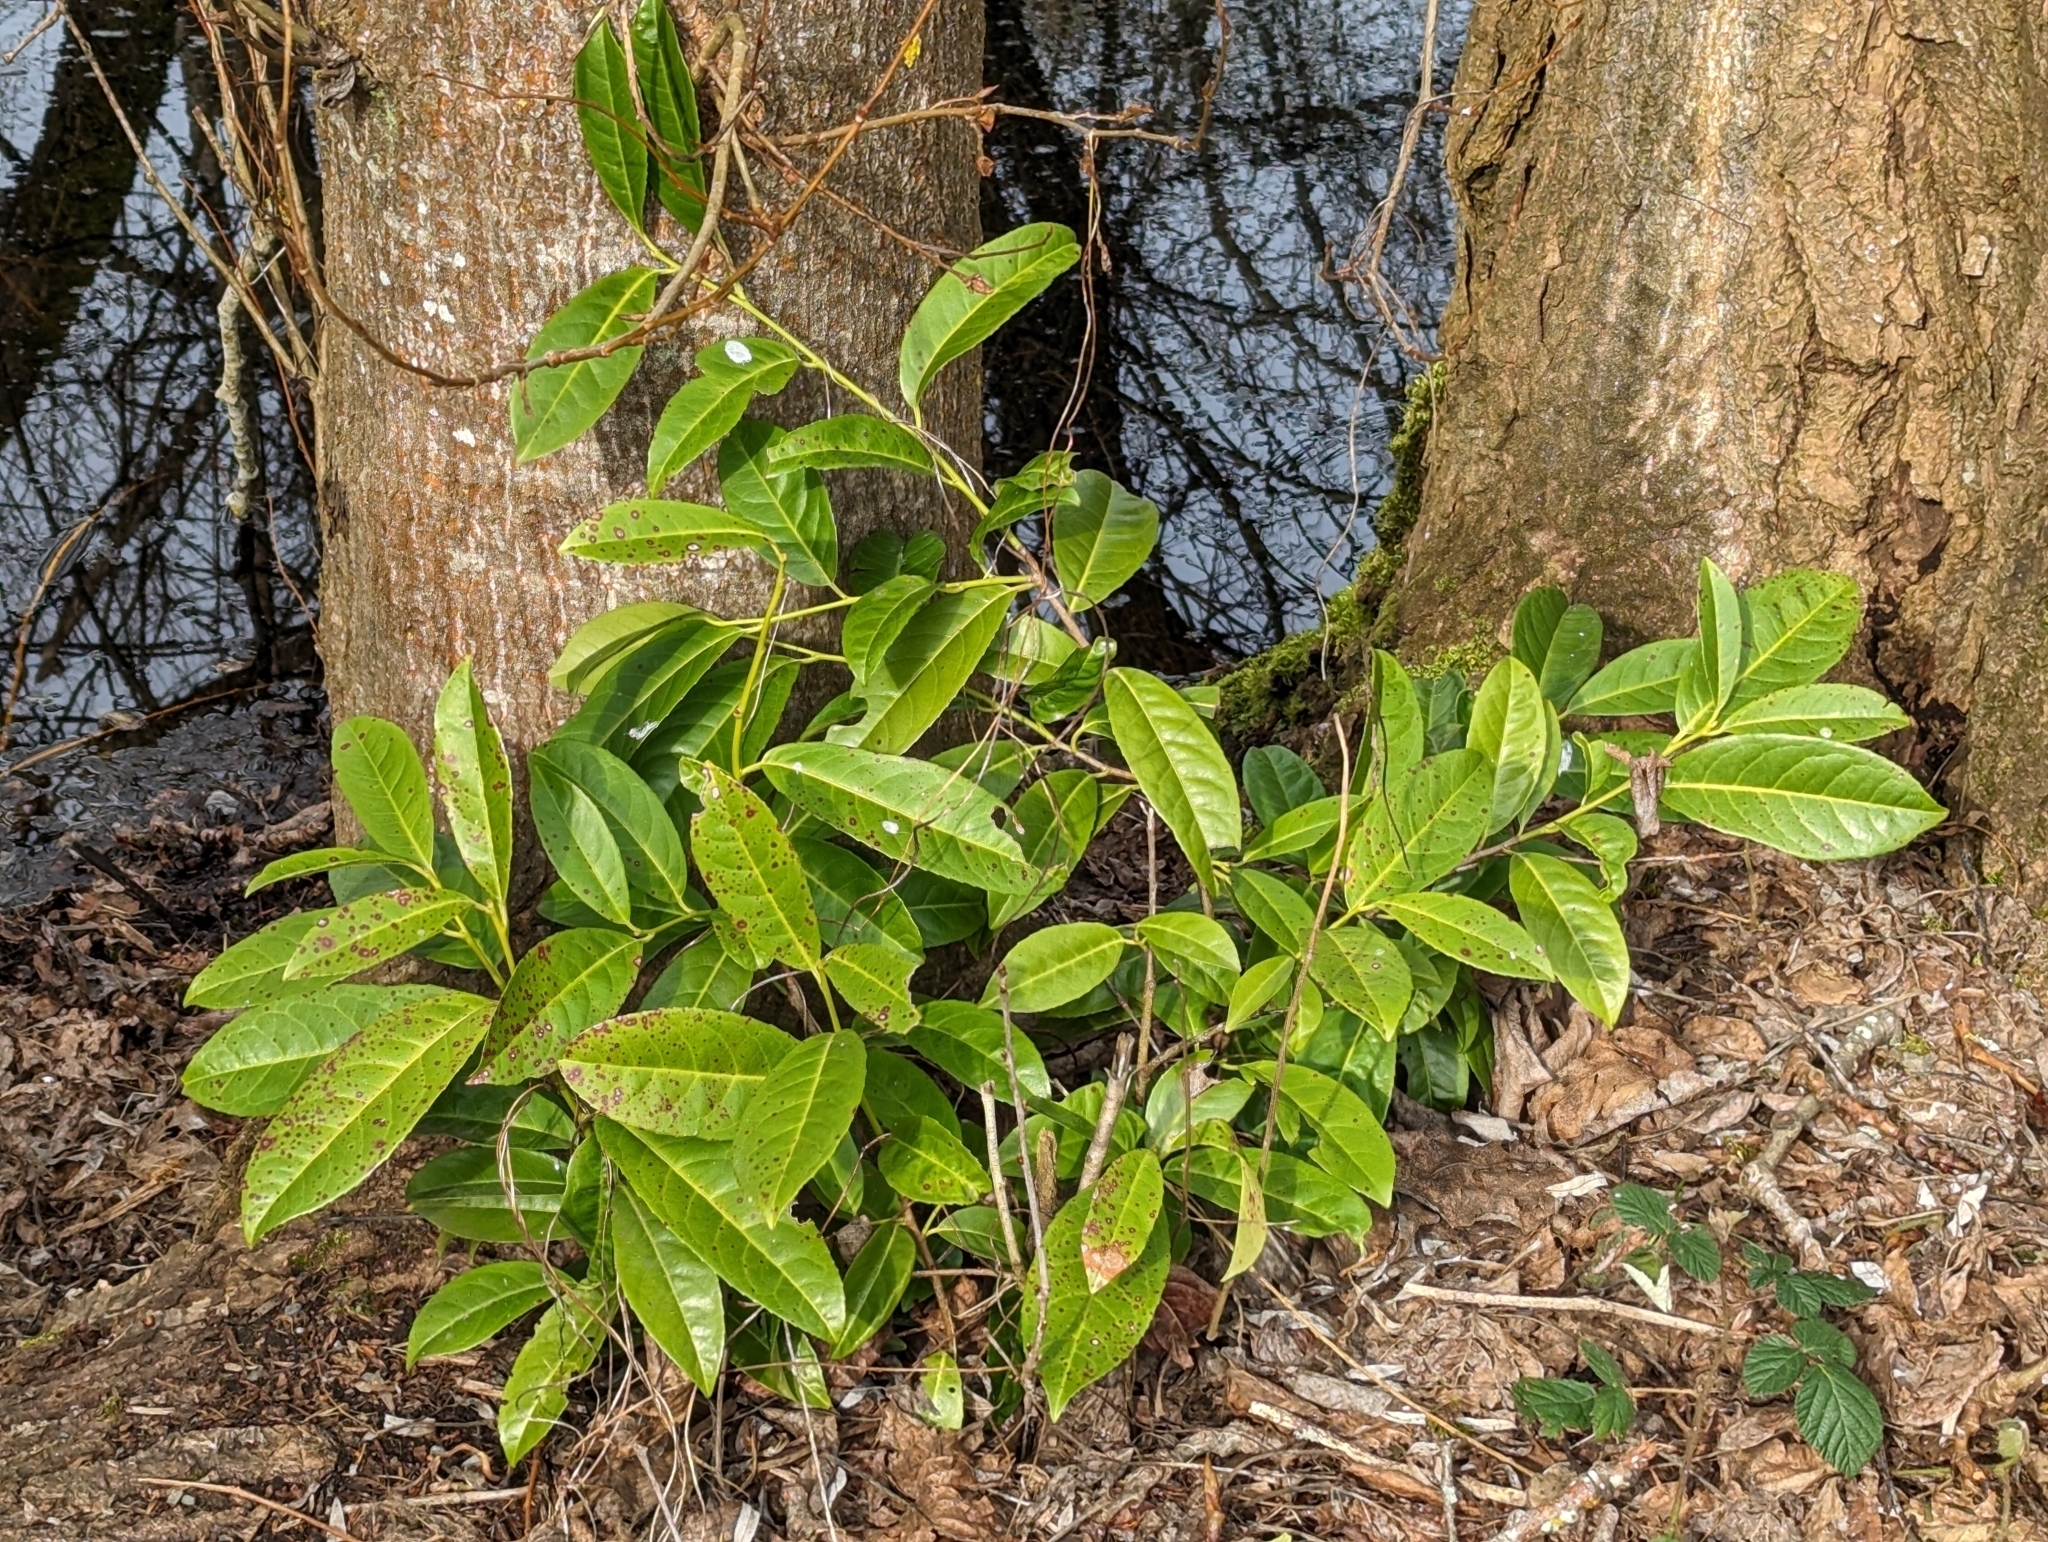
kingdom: Plantae
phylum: Tracheophyta
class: Magnoliopsida
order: Rosales
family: Rosaceae
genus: Prunus
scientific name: Prunus laurocerasus
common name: Cherry laurel
